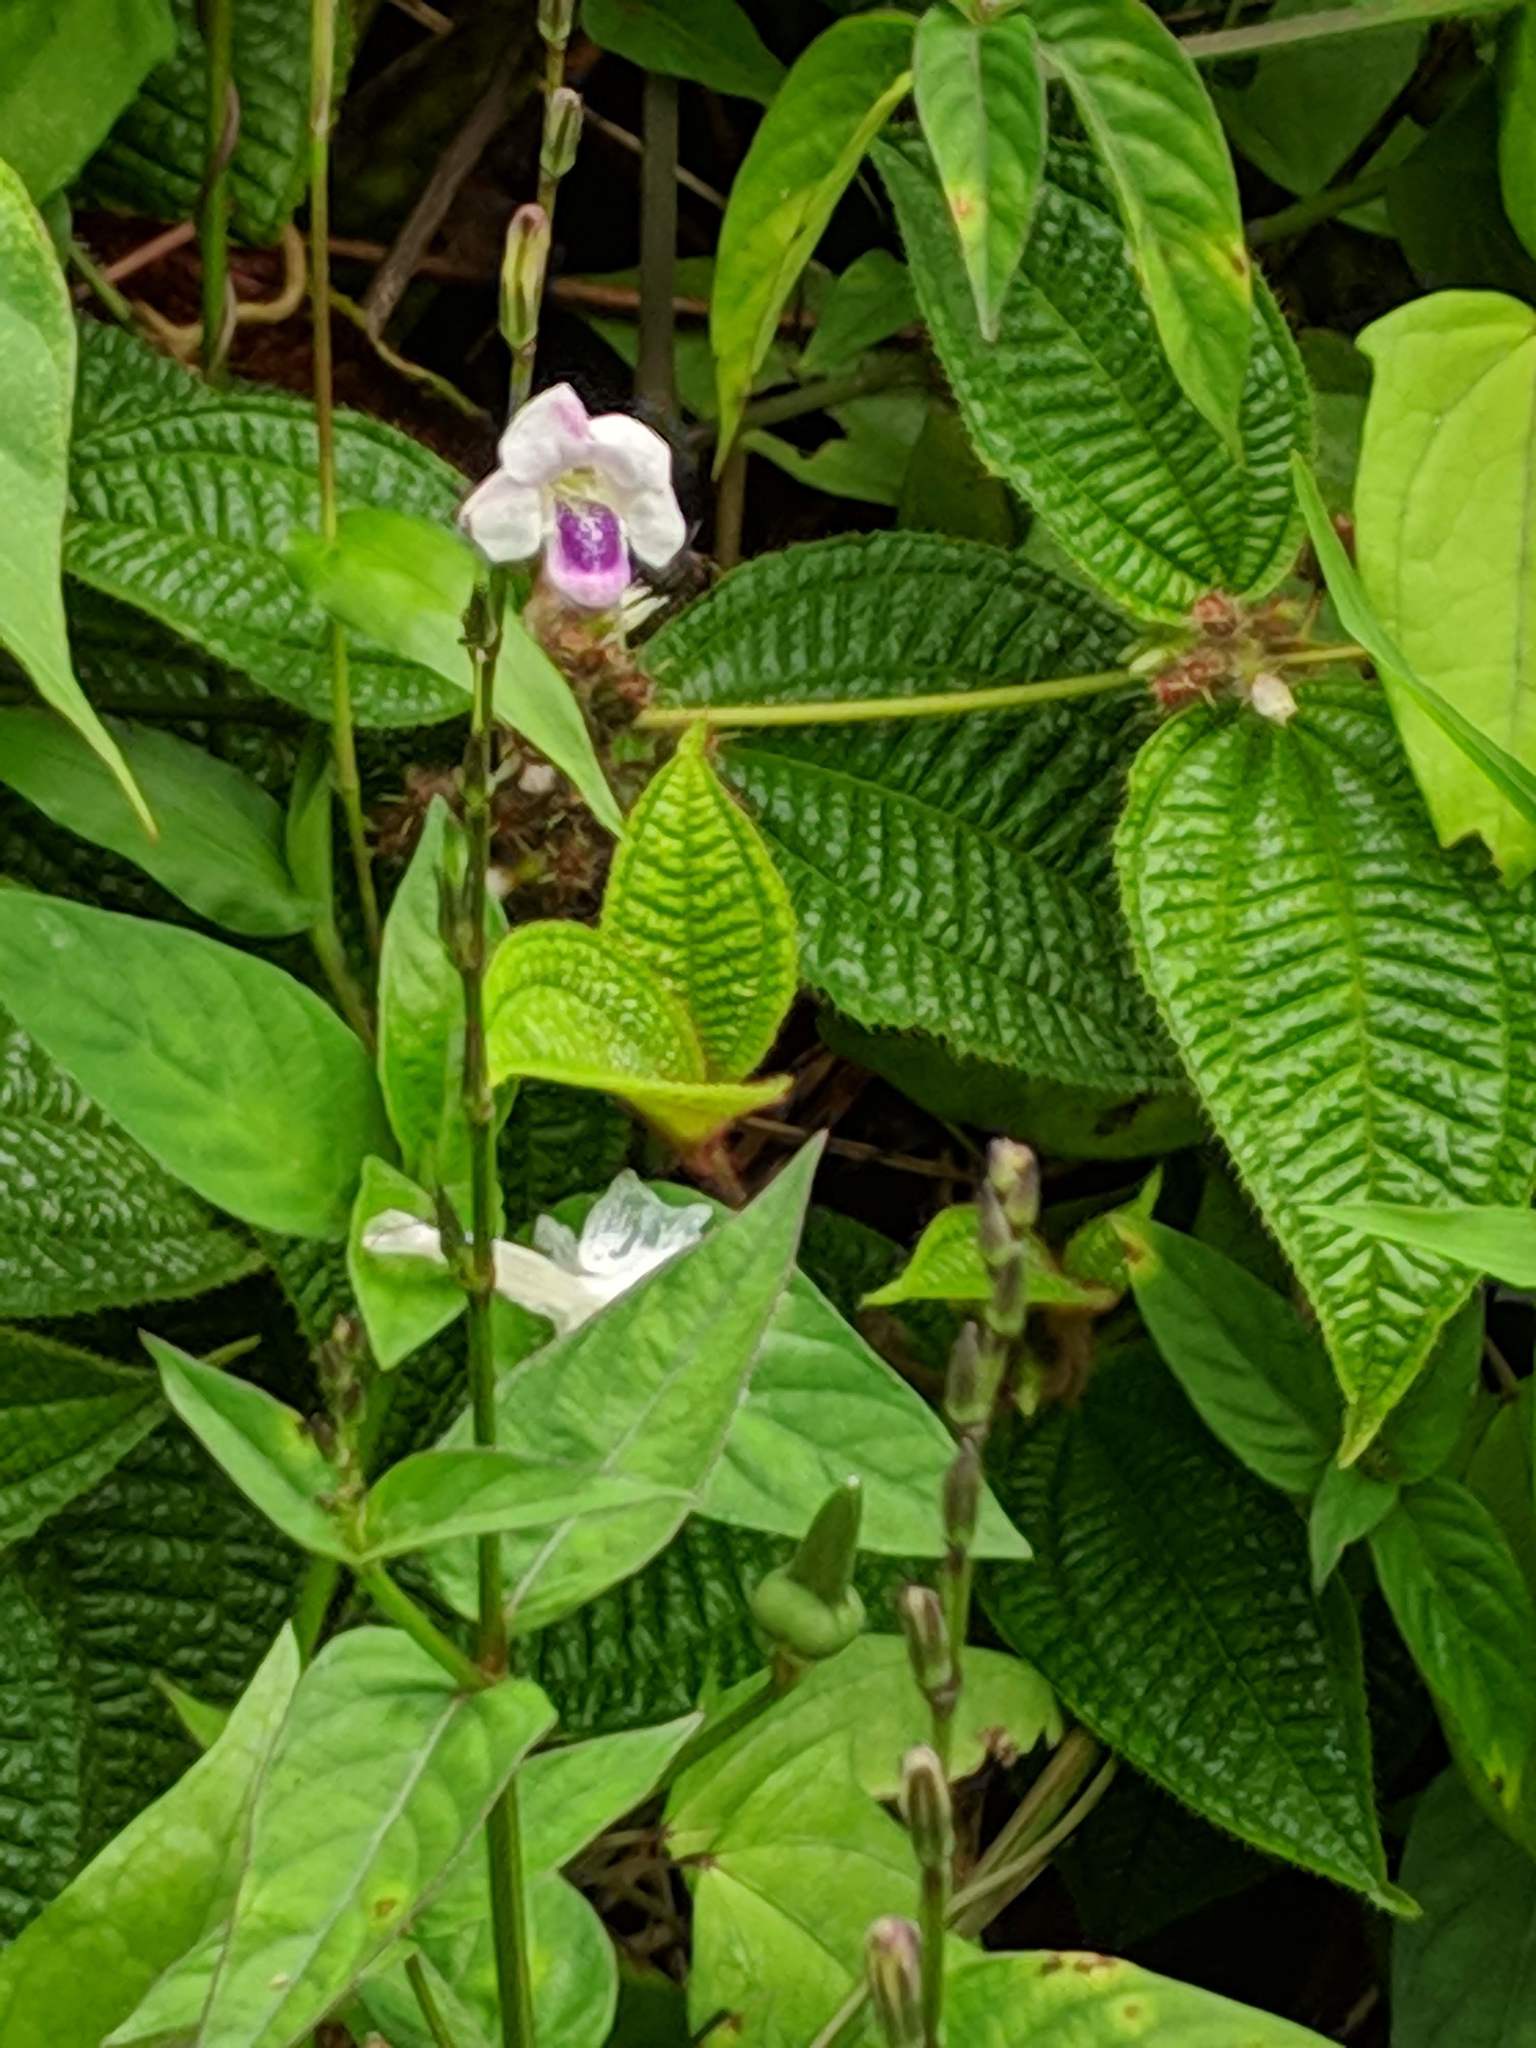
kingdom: Plantae
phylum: Tracheophyta
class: Magnoliopsida
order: Lamiales
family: Acanthaceae
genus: Asystasia
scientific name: Asystasia intrusa
